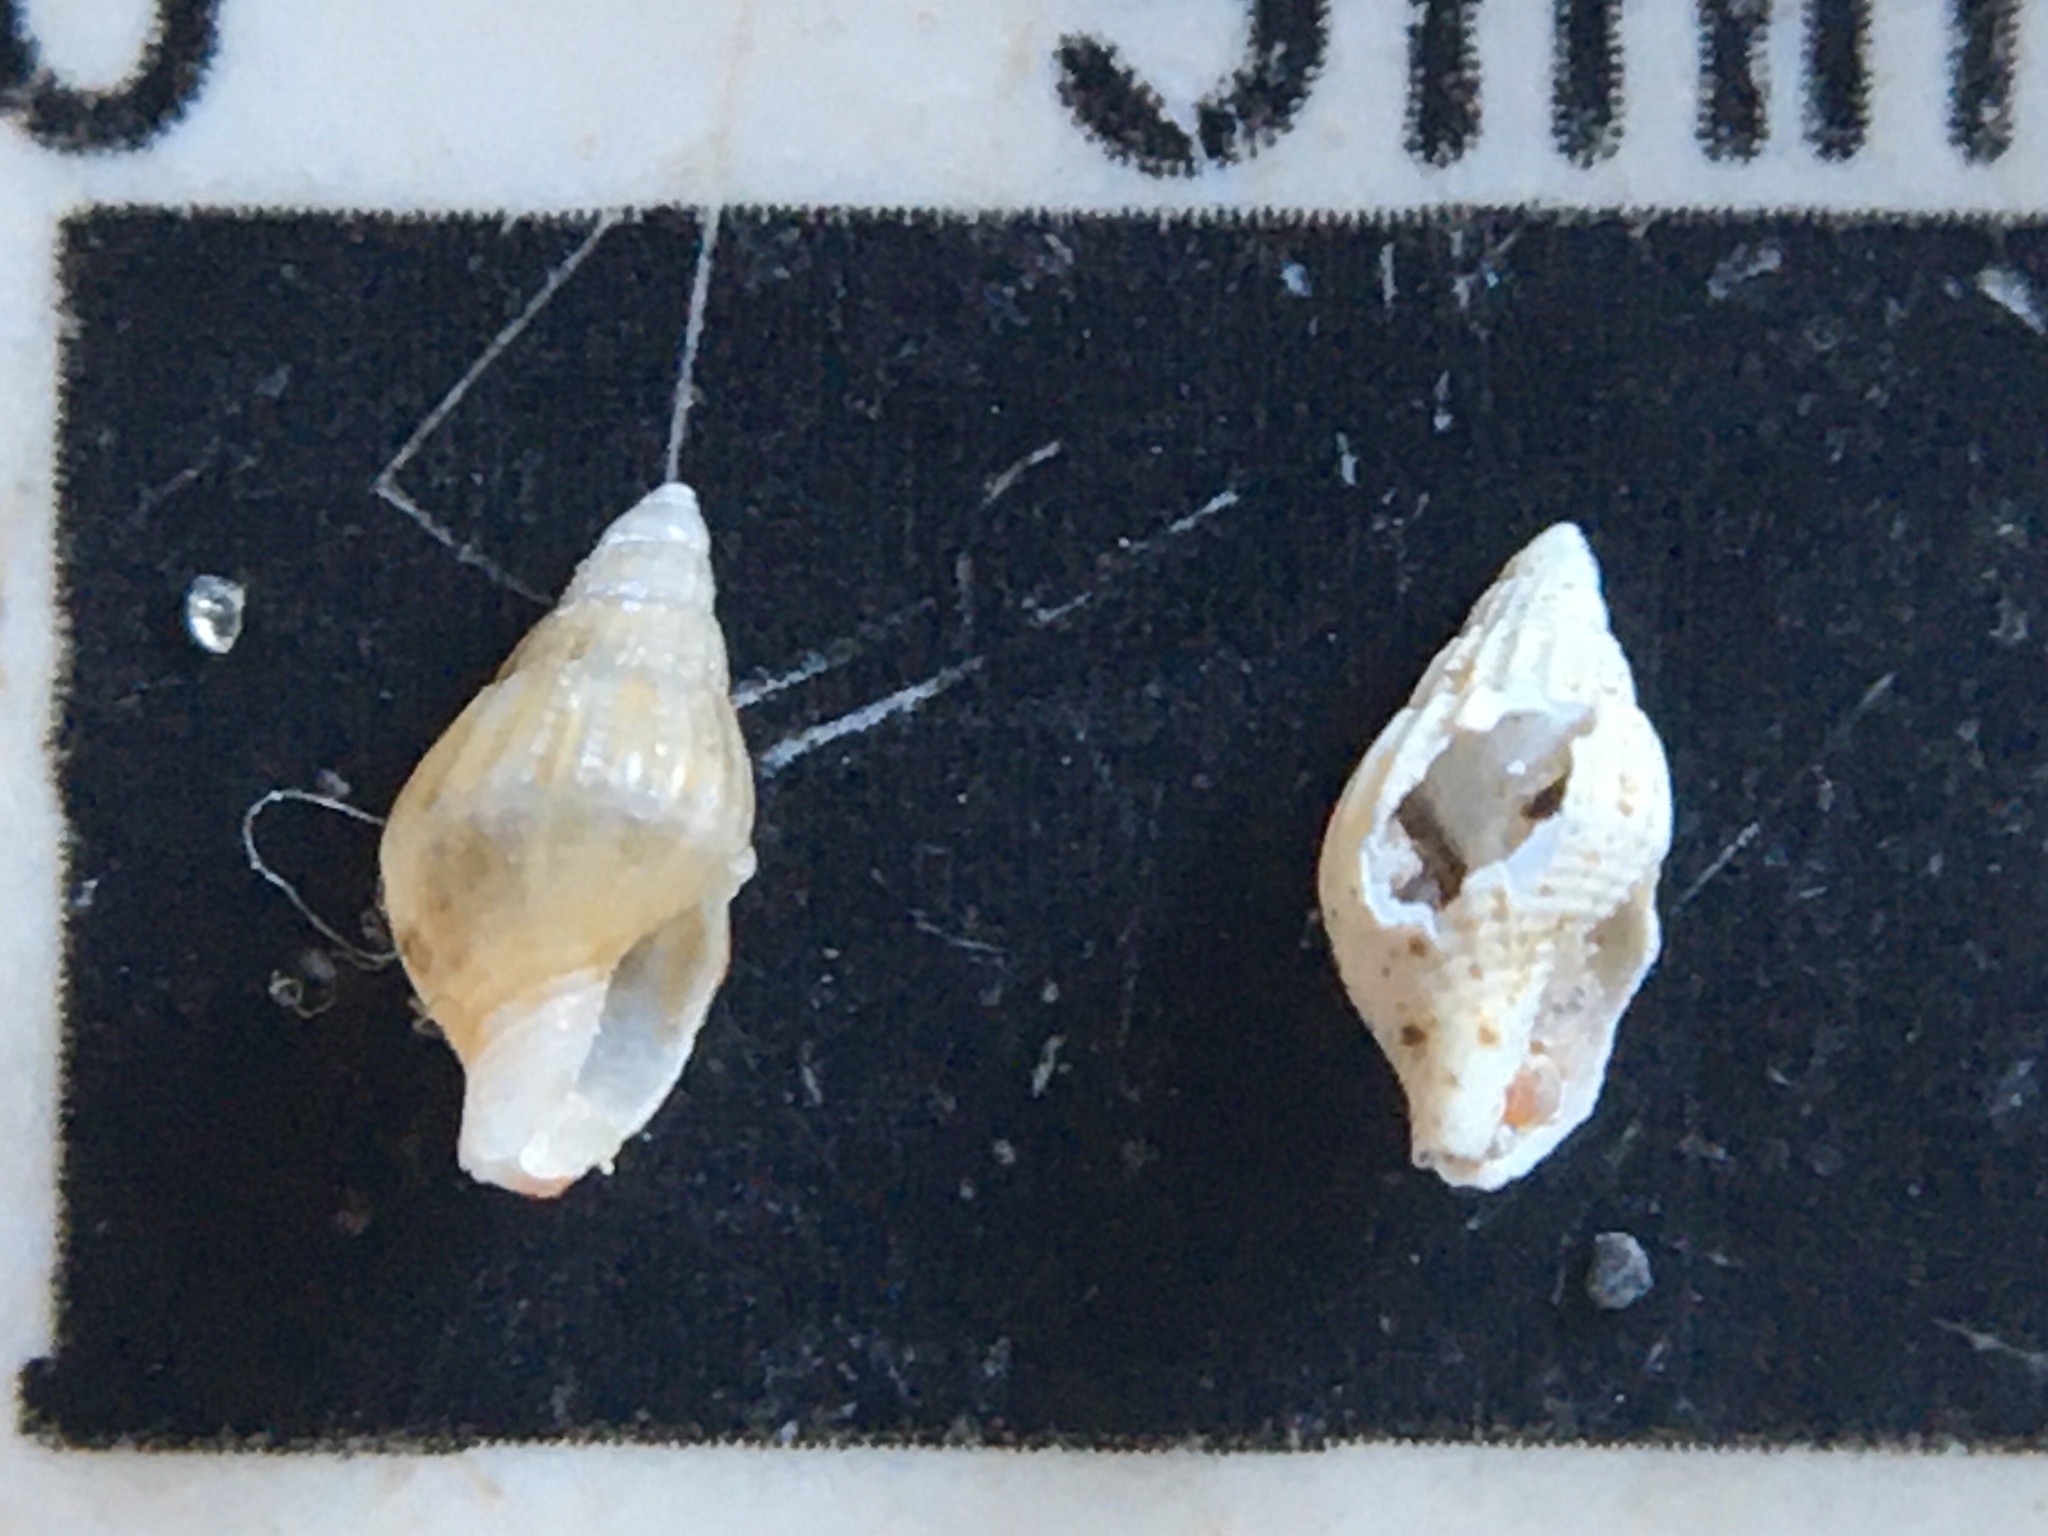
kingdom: Animalia
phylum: Mollusca
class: Gastropoda
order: Neogastropoda
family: Columbellidae
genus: Anachis
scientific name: Anachis isabellei
